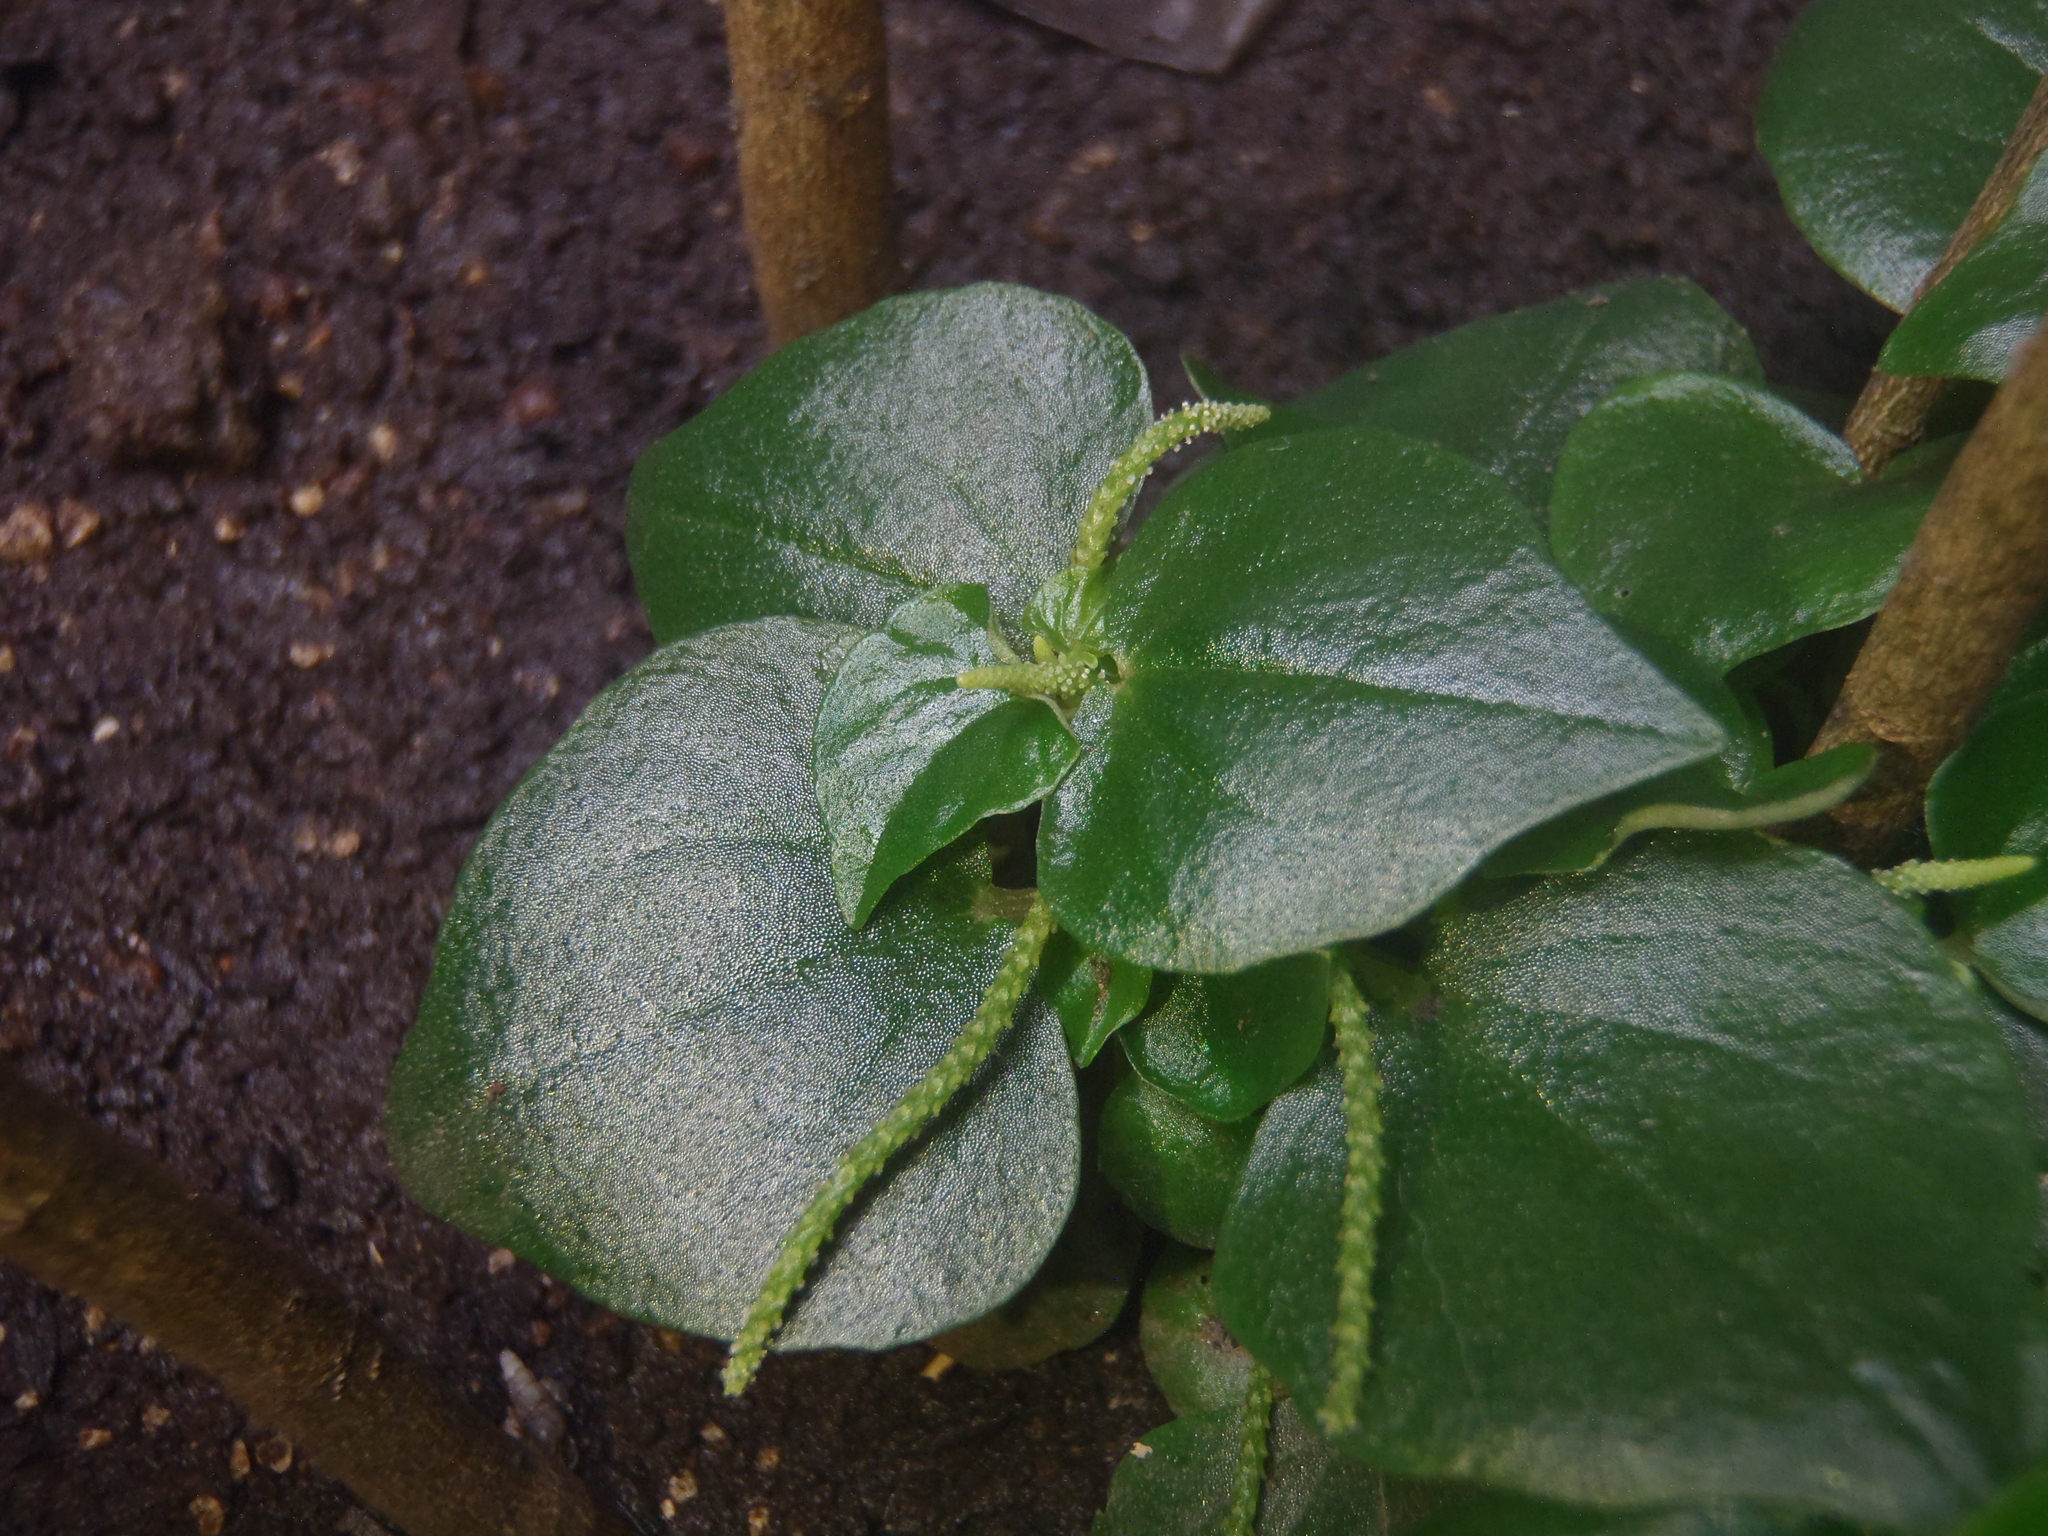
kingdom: Plantae
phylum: Tracheophyta
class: Magnoliopsida
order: Piperales
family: Piperaceae
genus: Peperomia
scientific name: Peperomia pellucida
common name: Man to man
